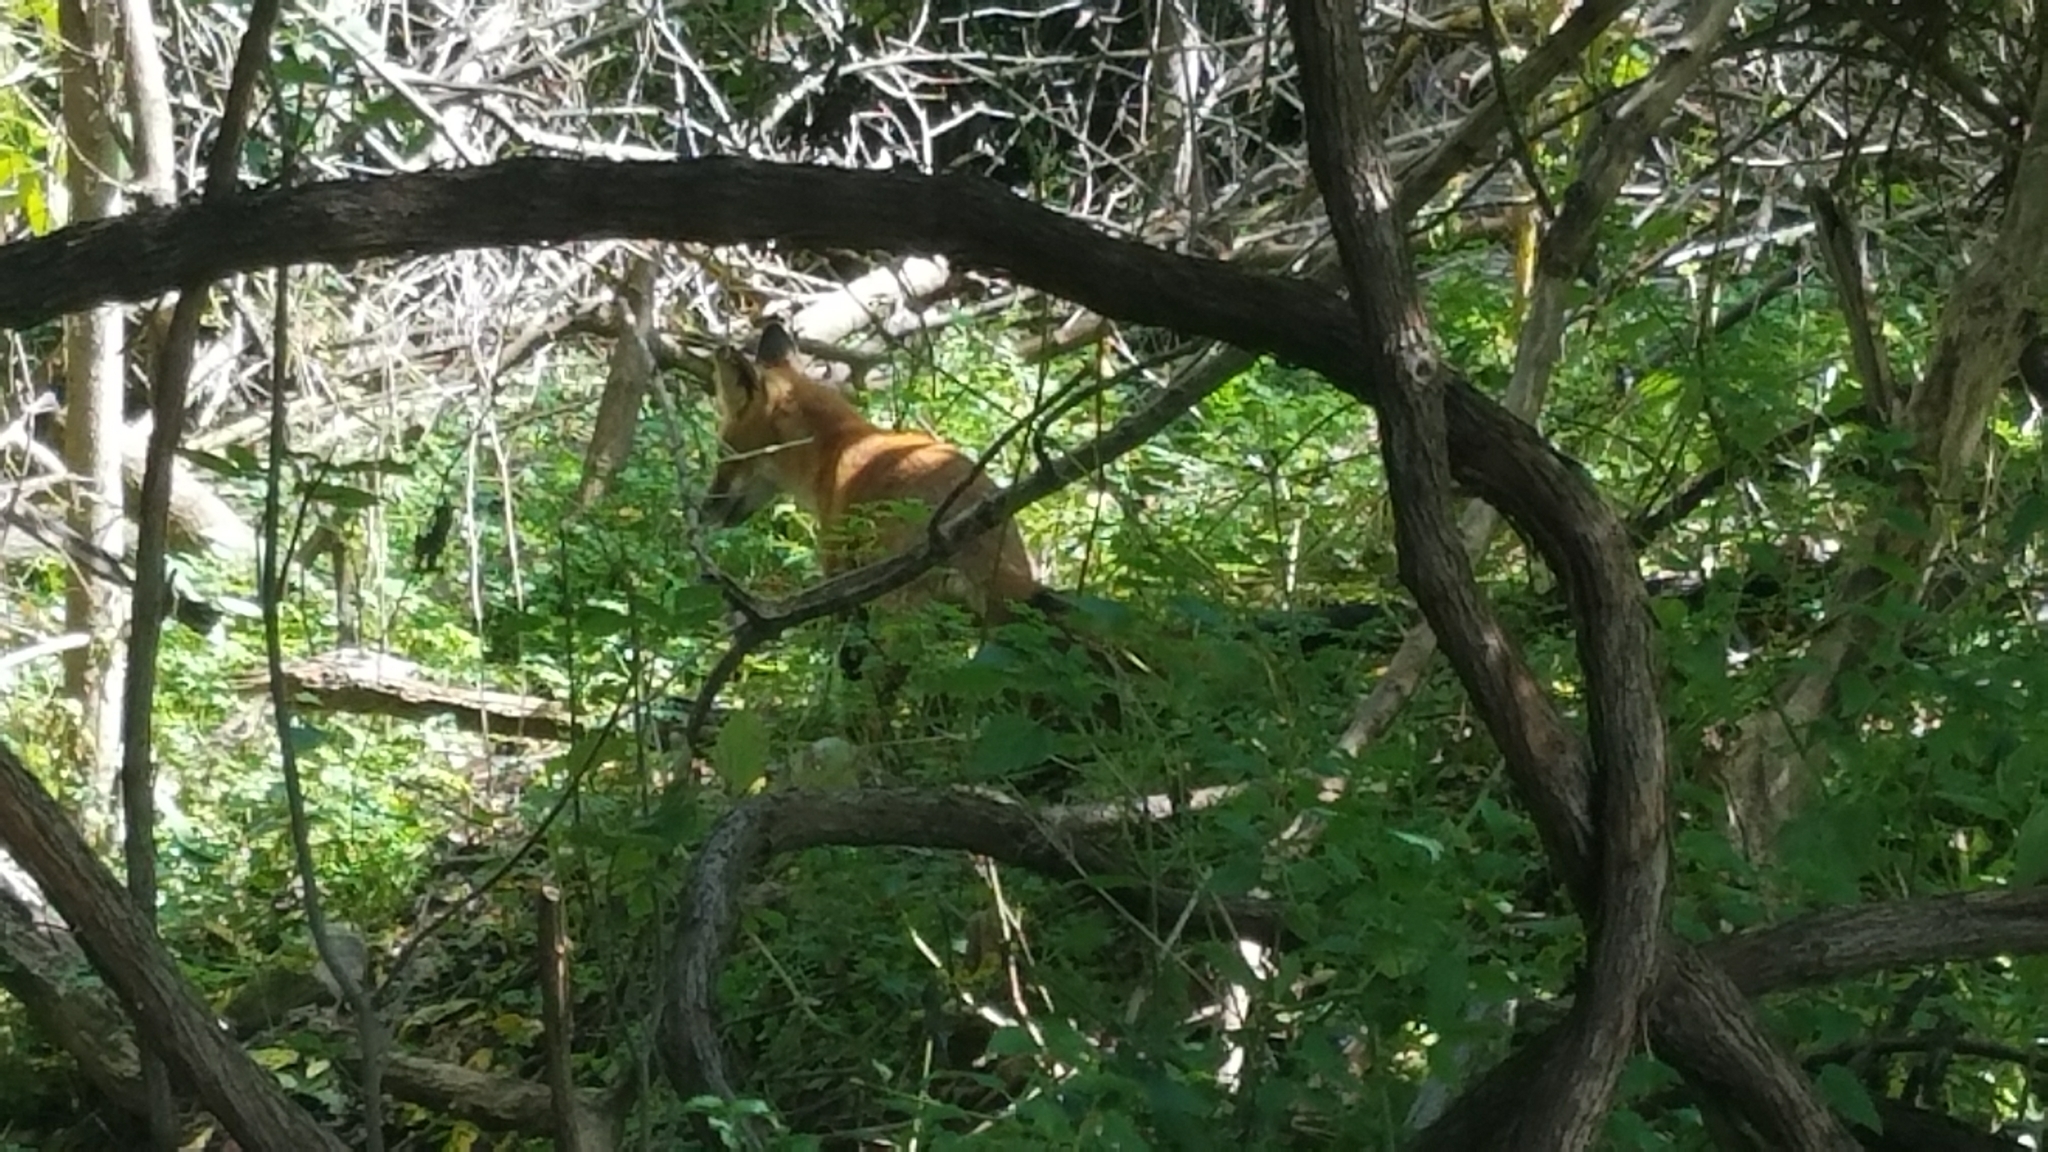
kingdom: Animalia
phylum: Chordata
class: Mammalia
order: Carnivora
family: Canidae
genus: Vulpes
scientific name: Vulpes vulpes
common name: Red fox
